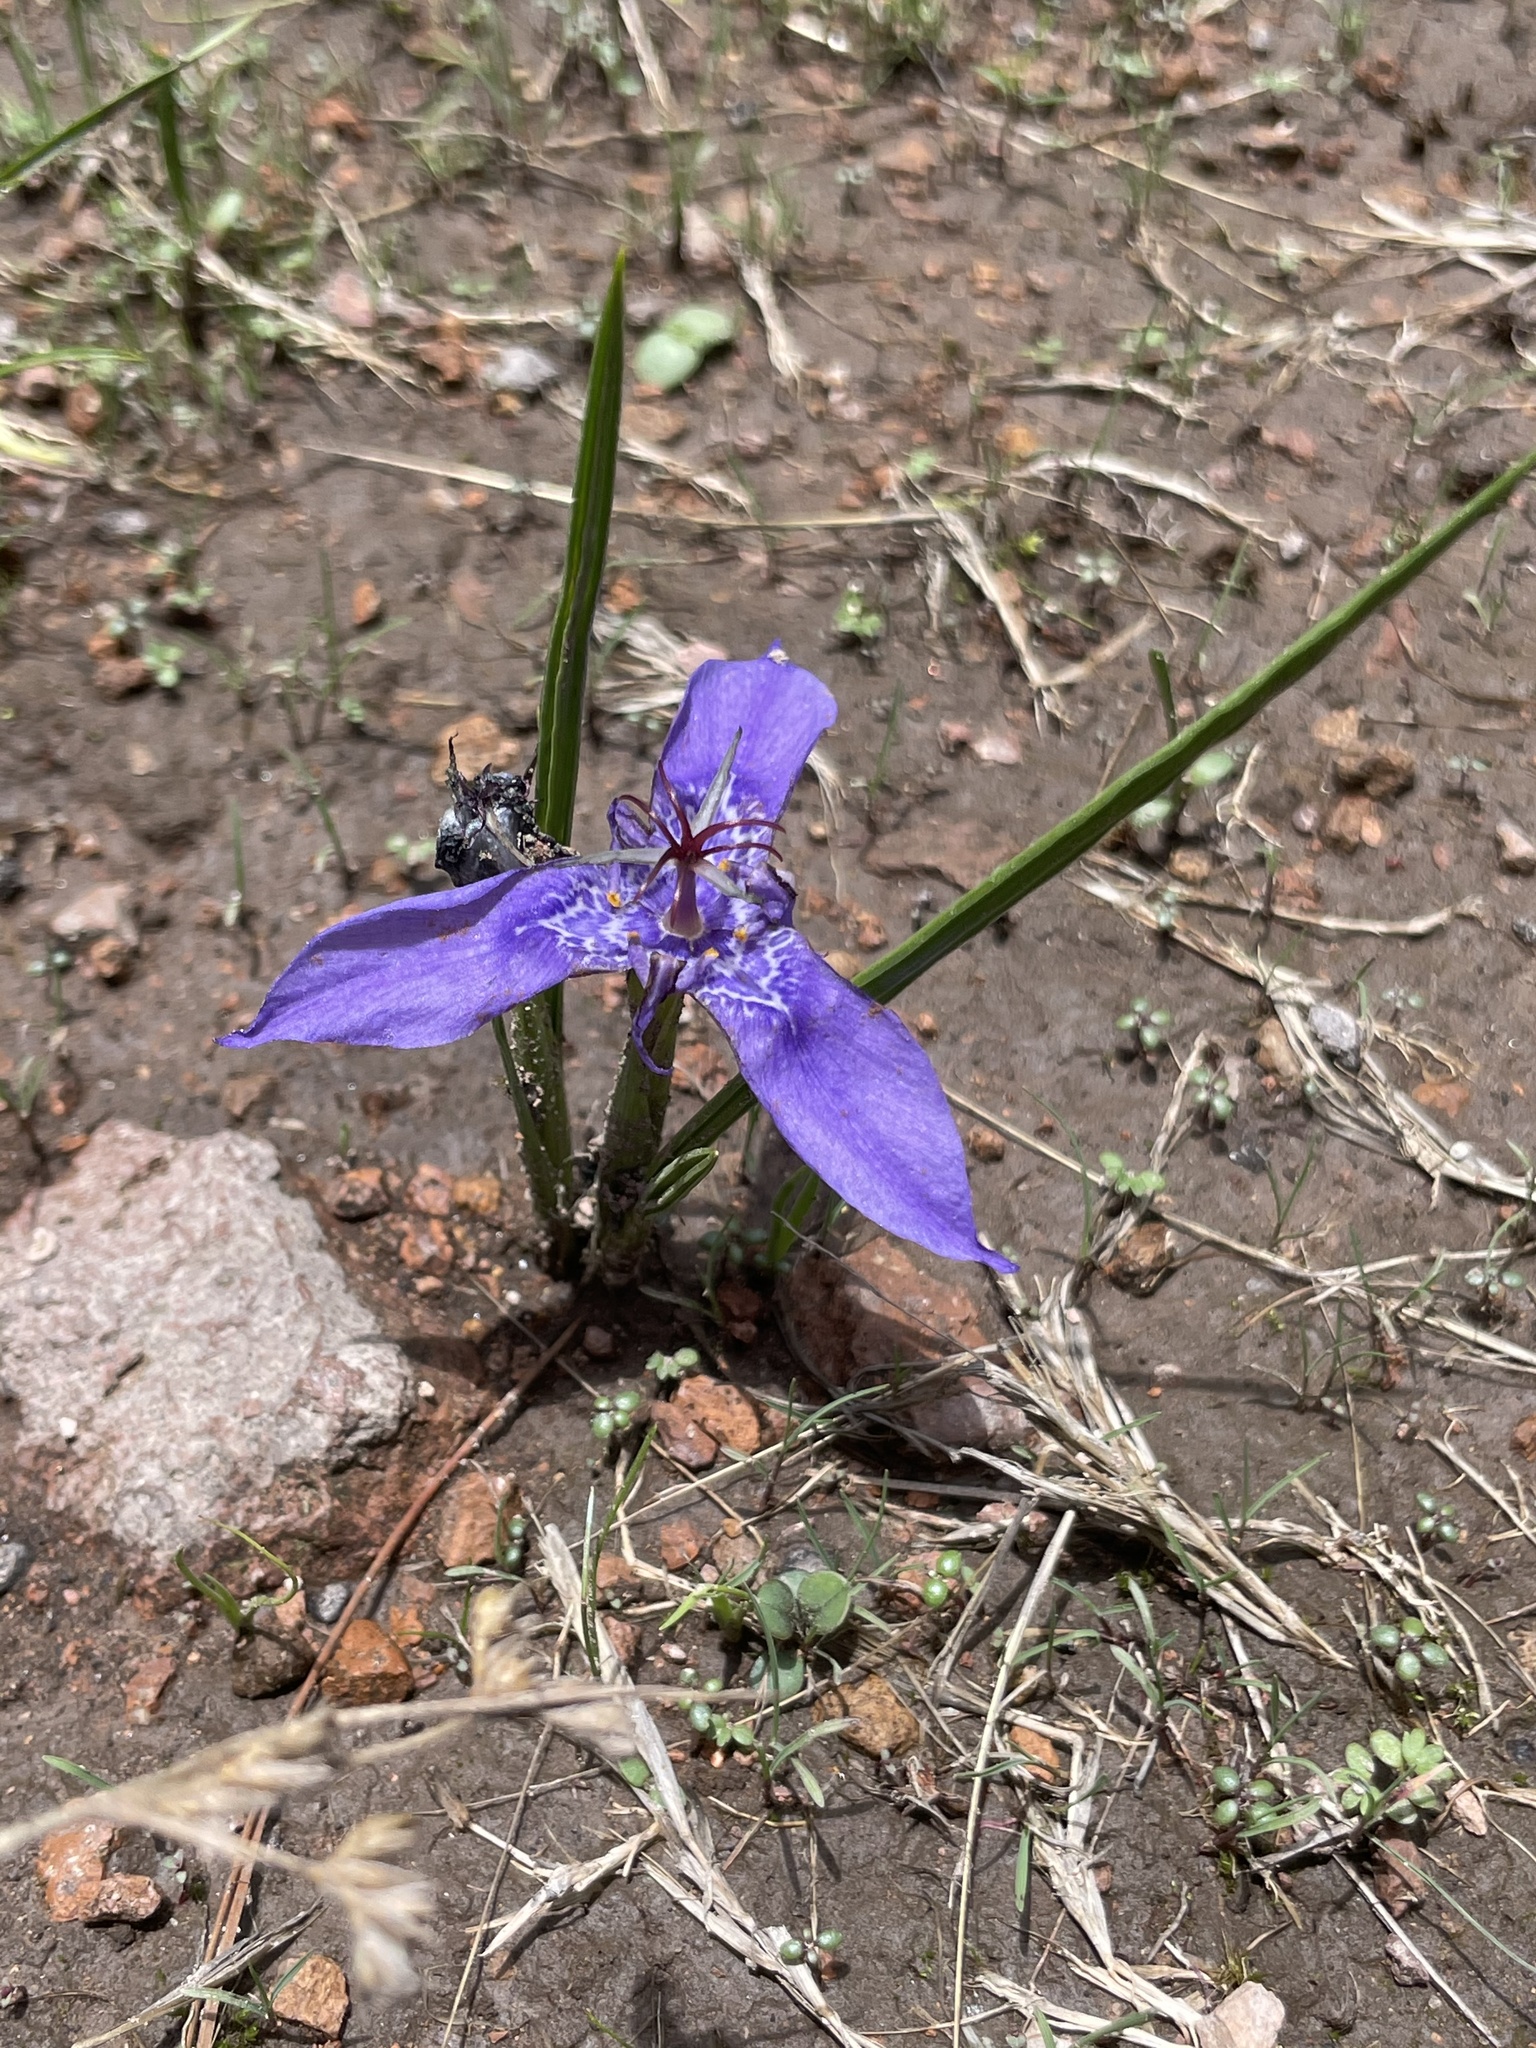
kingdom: Plantae
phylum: Tracheophyta
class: Liliopsida
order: Asparagales
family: Iridaceae
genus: Tigridia
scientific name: Tigridia durangensis
